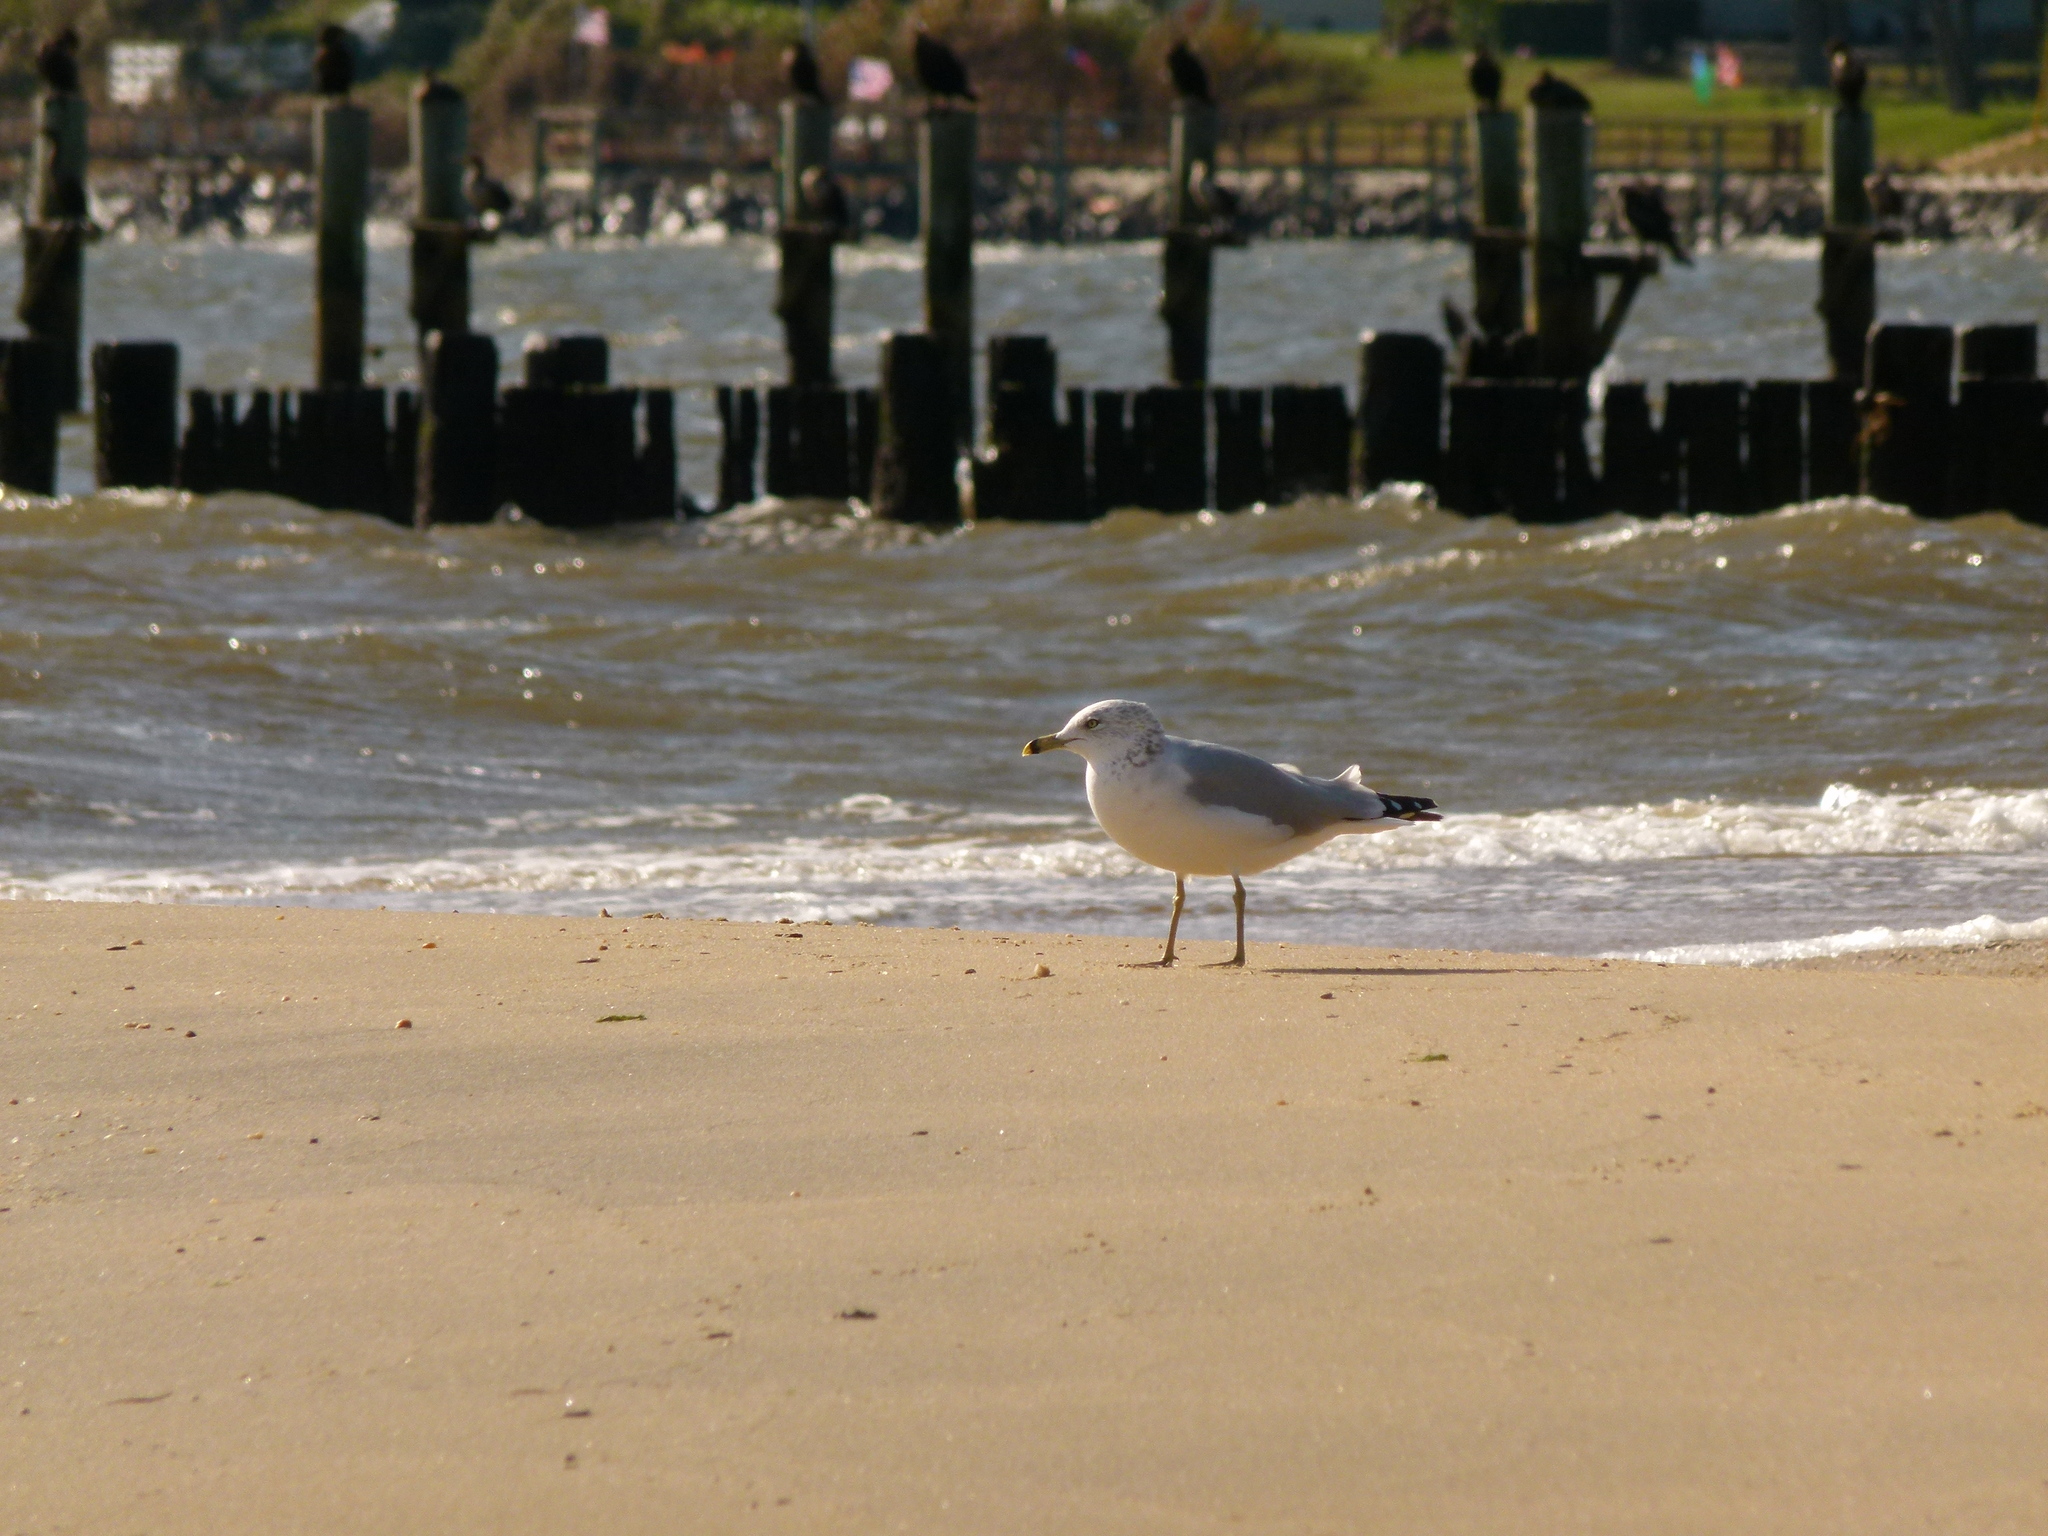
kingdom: Animalia
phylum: Chordata
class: Aves
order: Charadriiformes
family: Laridae
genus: Larus
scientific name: Larus delawarensis
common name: Ring-billed gull
